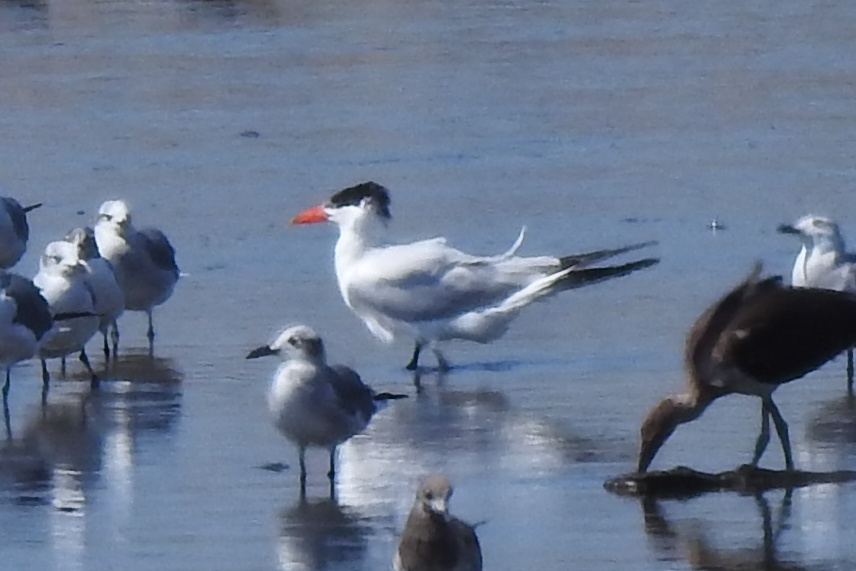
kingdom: Animalia
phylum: Chordata
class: Aves
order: Charadriiformes
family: Laridae
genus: Hydroprogne
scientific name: Hydroprogne caspia
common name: Caspian tern
